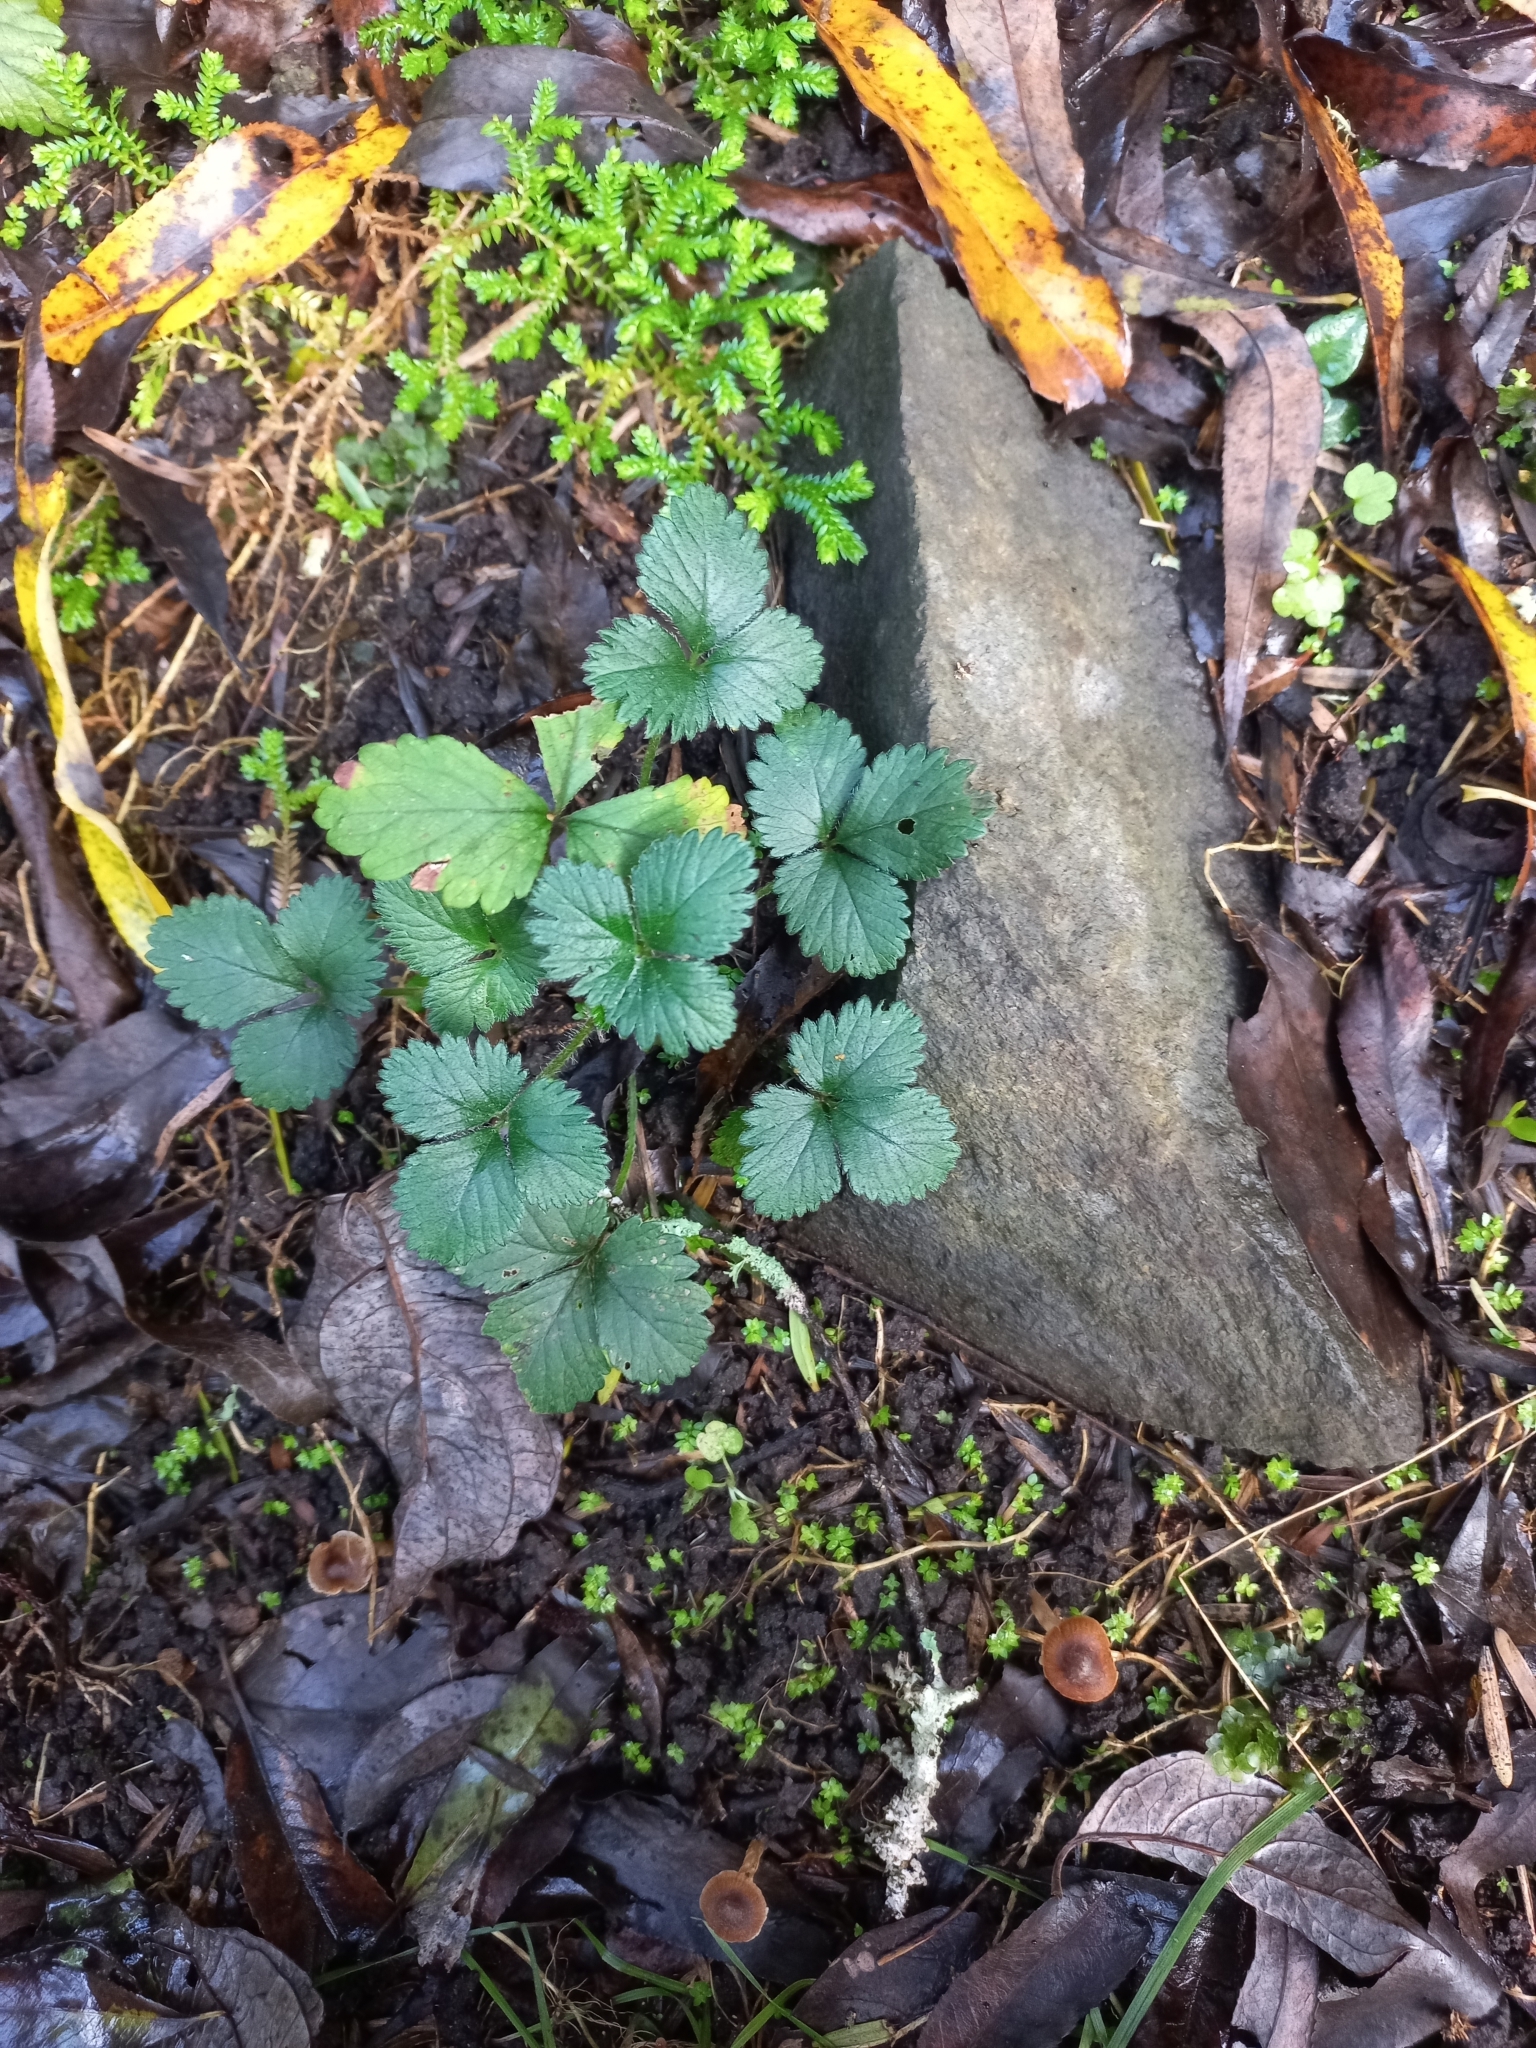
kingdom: Plantae
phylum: Tracheophyta
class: Magnoliopsida
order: Rosales
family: Rosaceae
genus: Potentilla
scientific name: Potentilla indica
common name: Yellow-flowered strawberry
